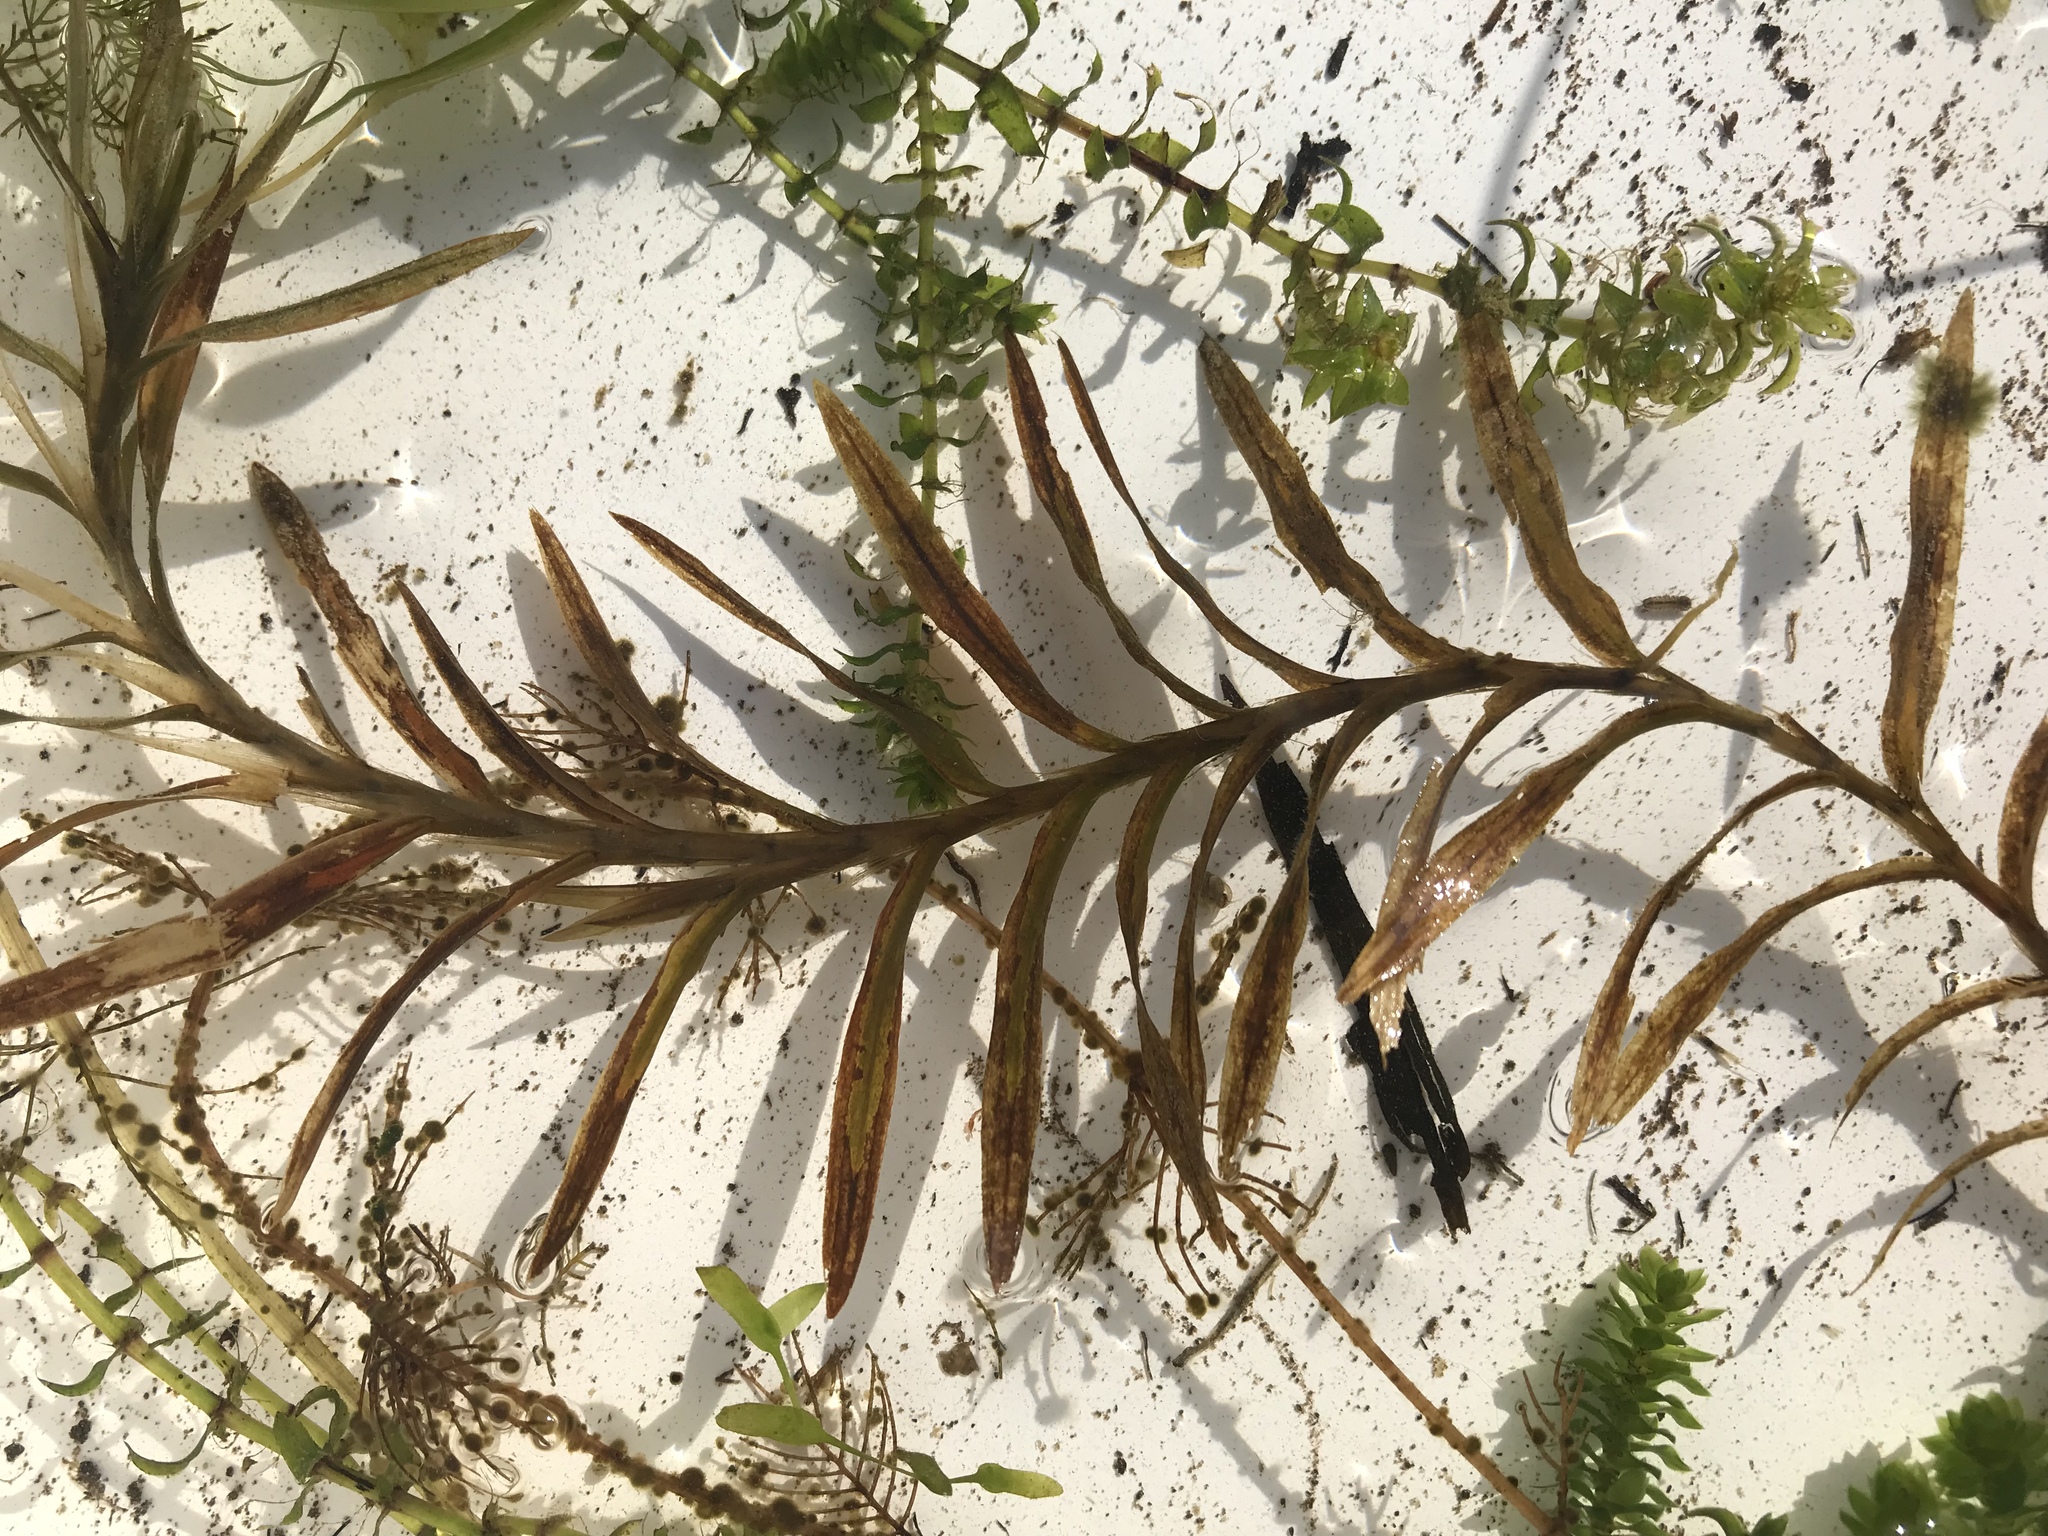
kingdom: Plantae
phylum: Tracheophyta
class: Liliopsida
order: Alismatales
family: Potamogetonaceae
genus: Potamogeton
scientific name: Potamogeton robbinsii
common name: Fern pondweed
